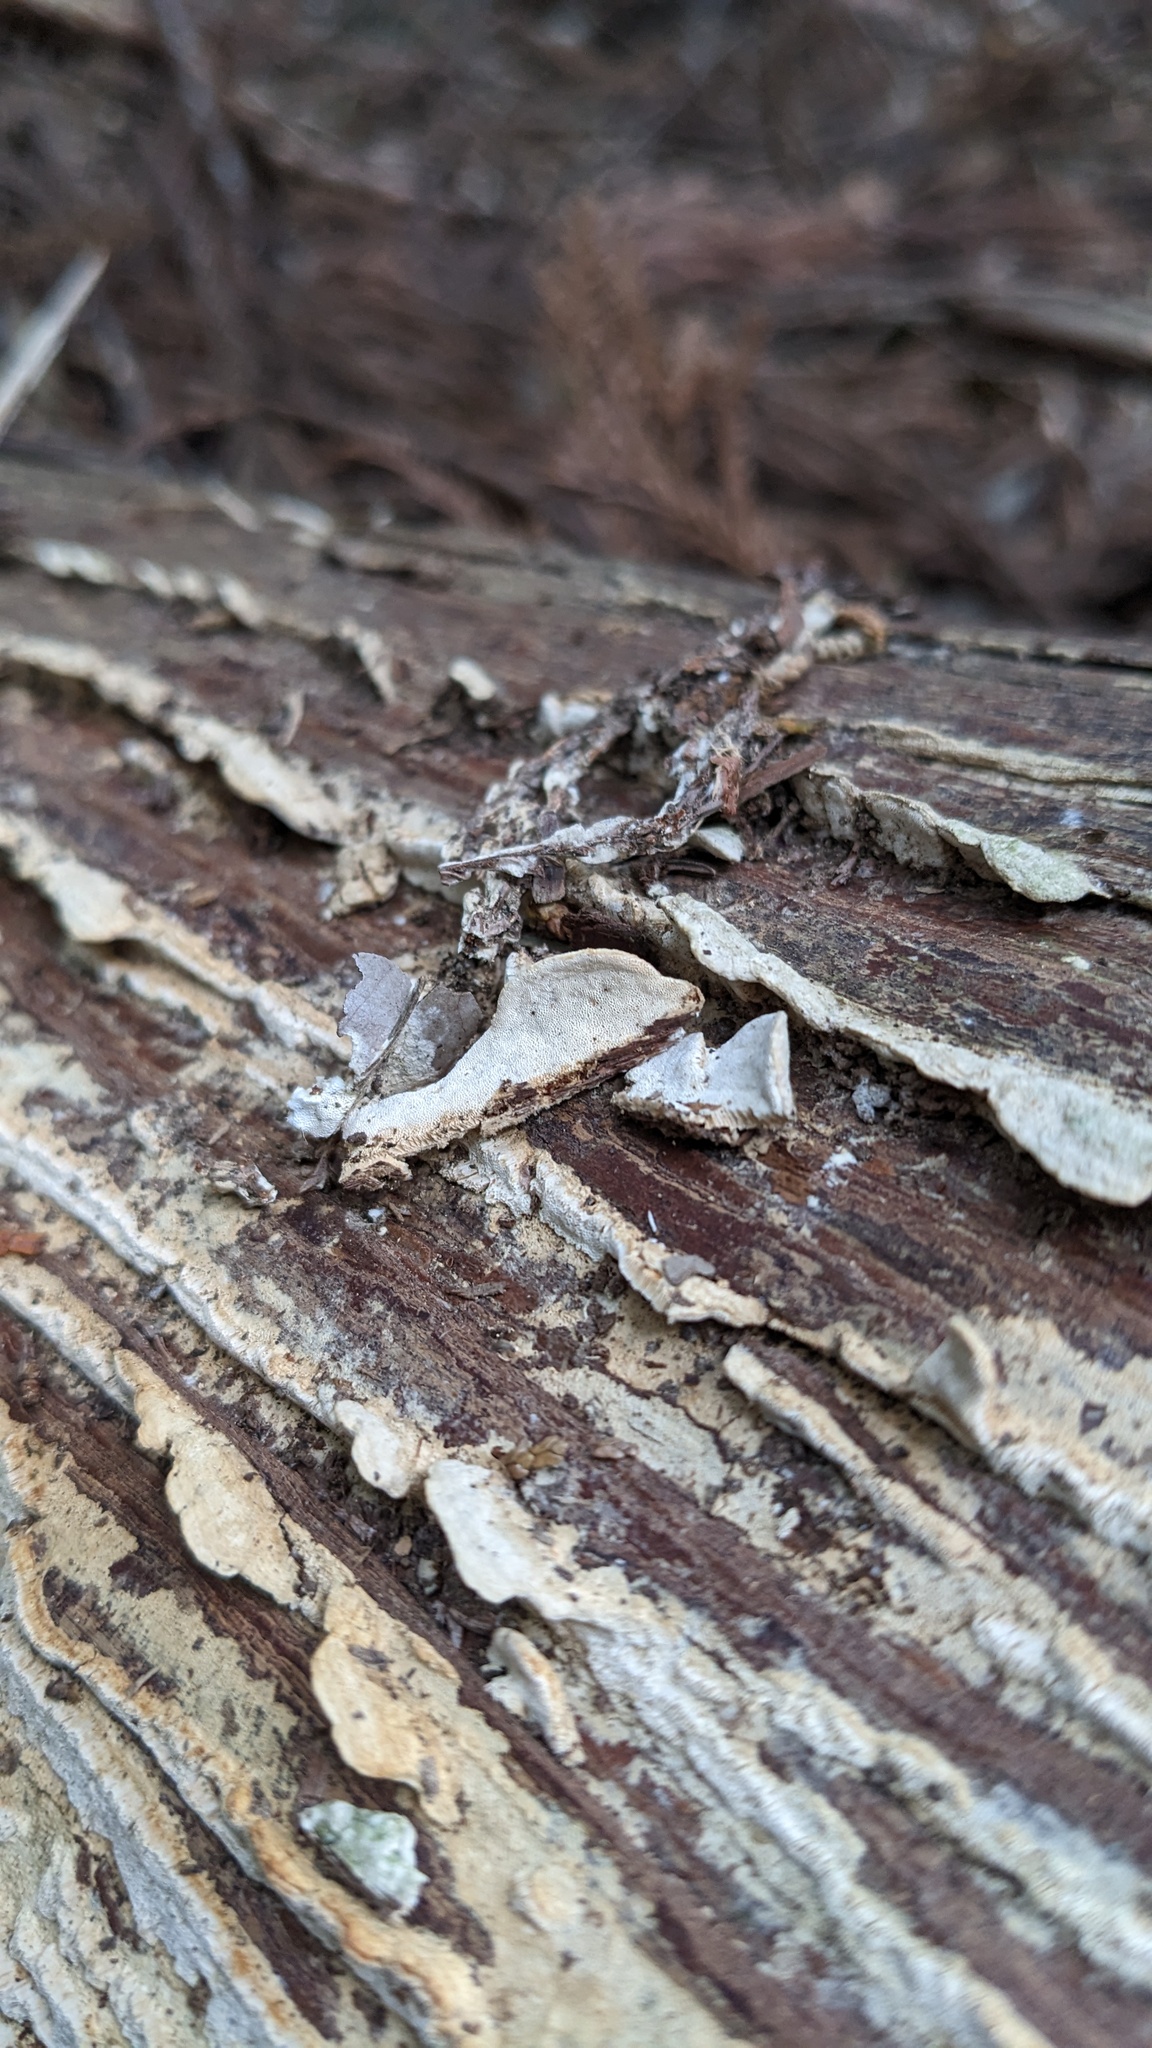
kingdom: Fungi
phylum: Basidiomycota
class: Agaricomycetes
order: Hymenochaetales
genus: Cyanotrama
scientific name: Cyanotrama
